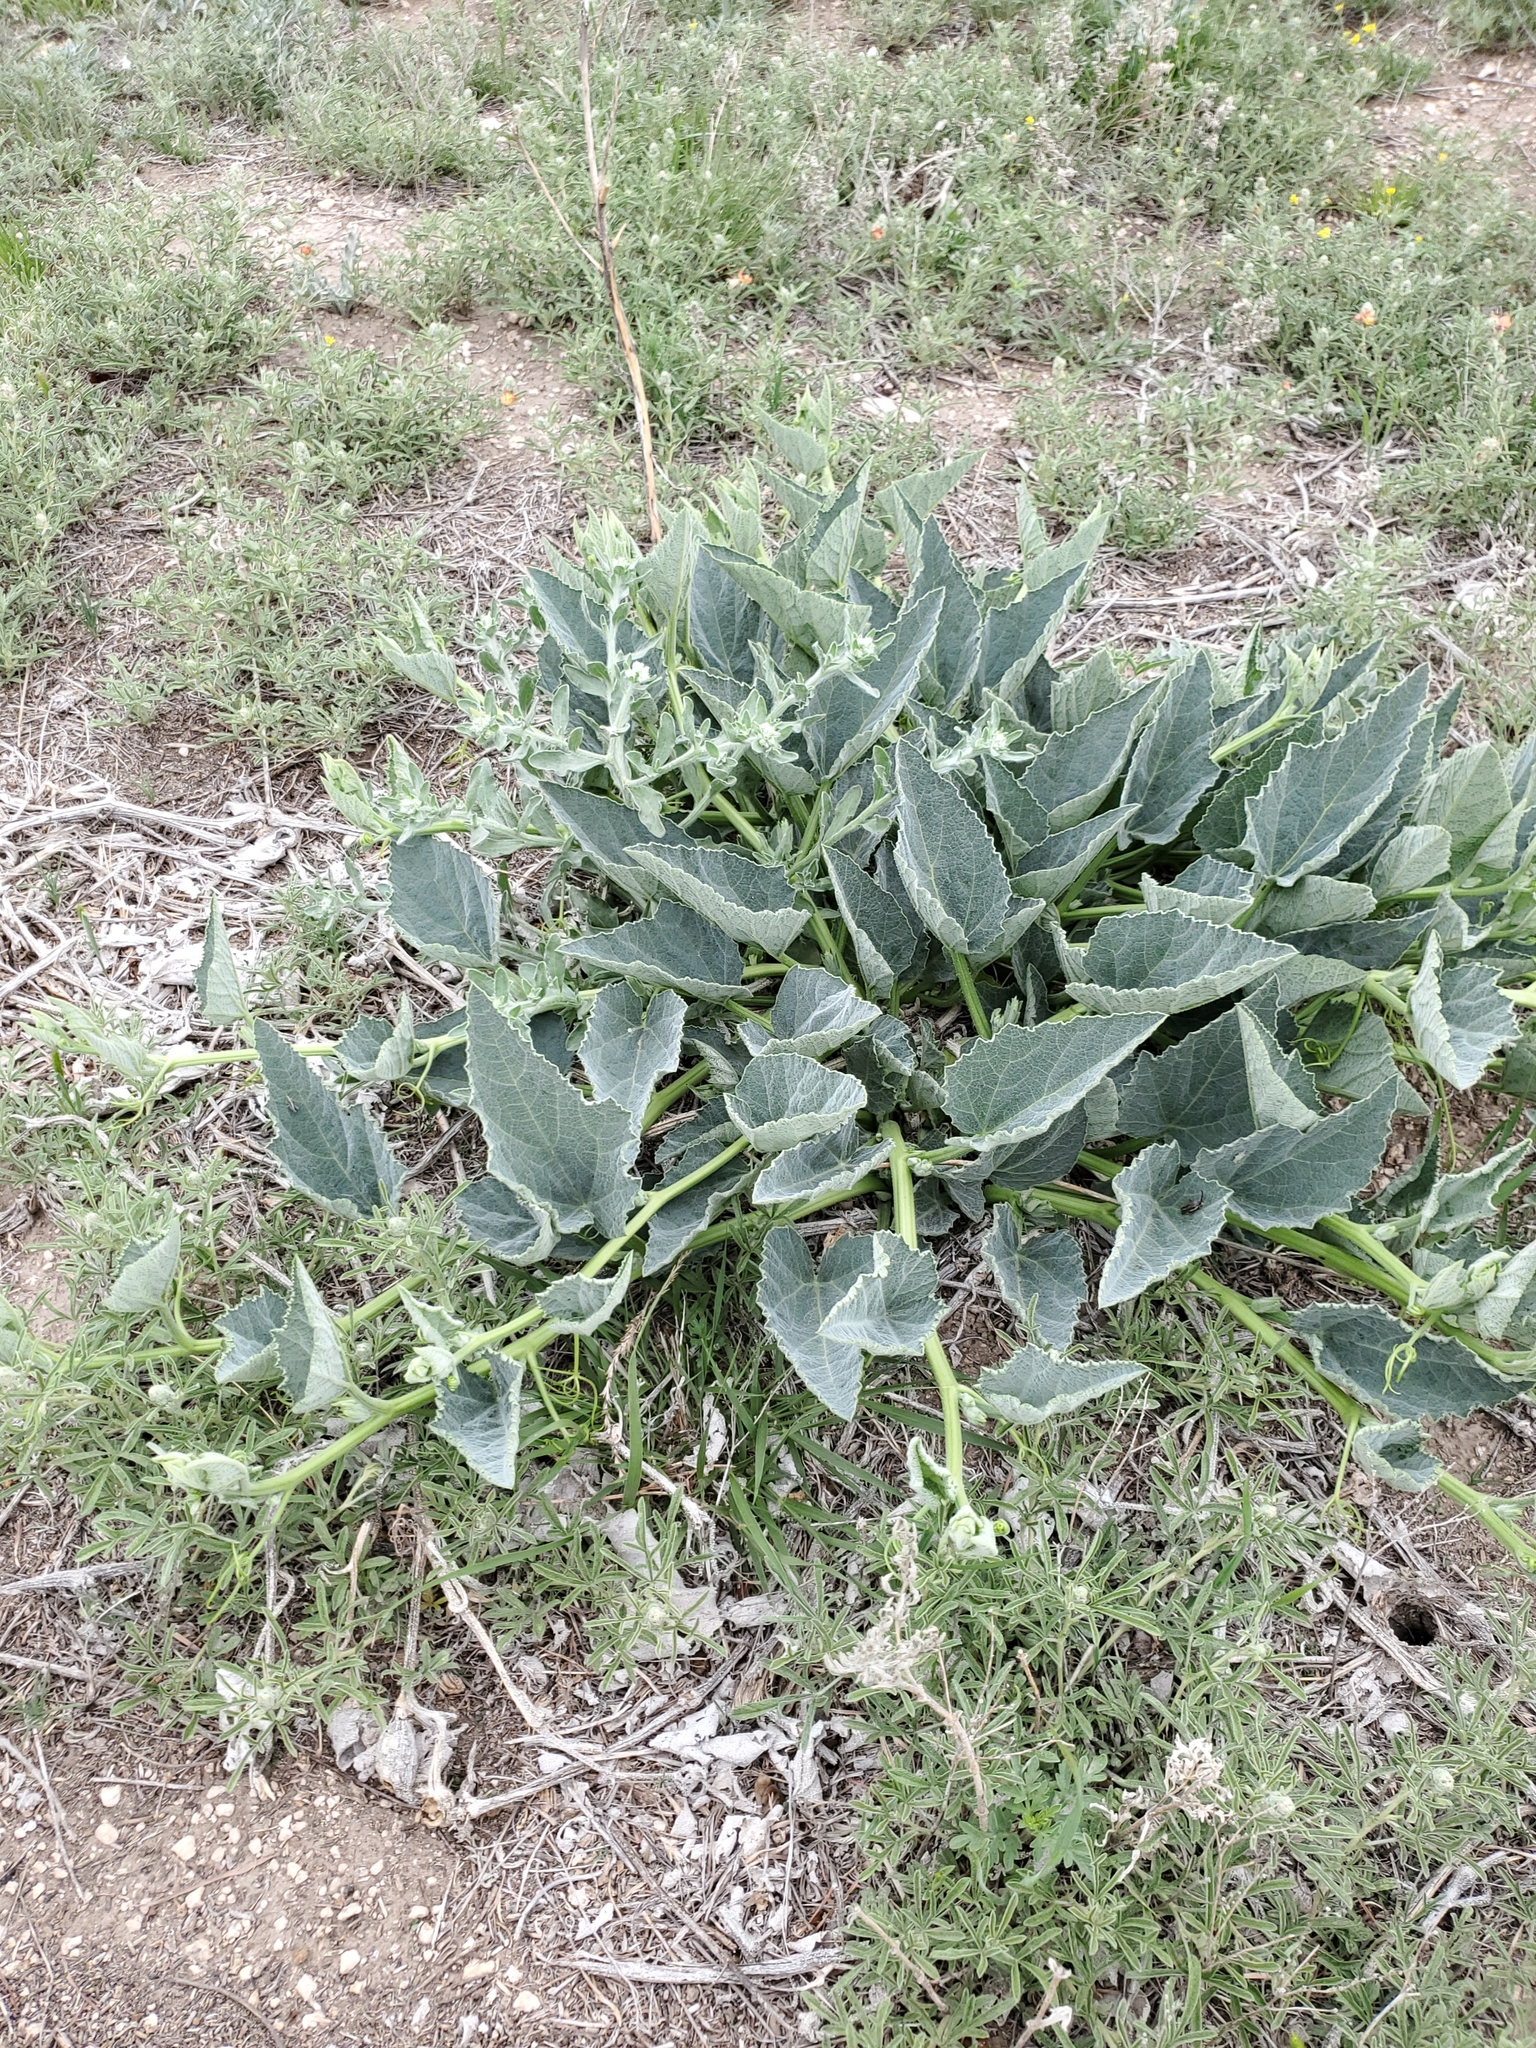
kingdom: Plantae
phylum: Tracheophyta
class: Magnoliopsida
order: Cucurbitales
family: Cucurbitaceae
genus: Cucurbita
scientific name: Cucurbita foetidissima
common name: Buffalo gourd
